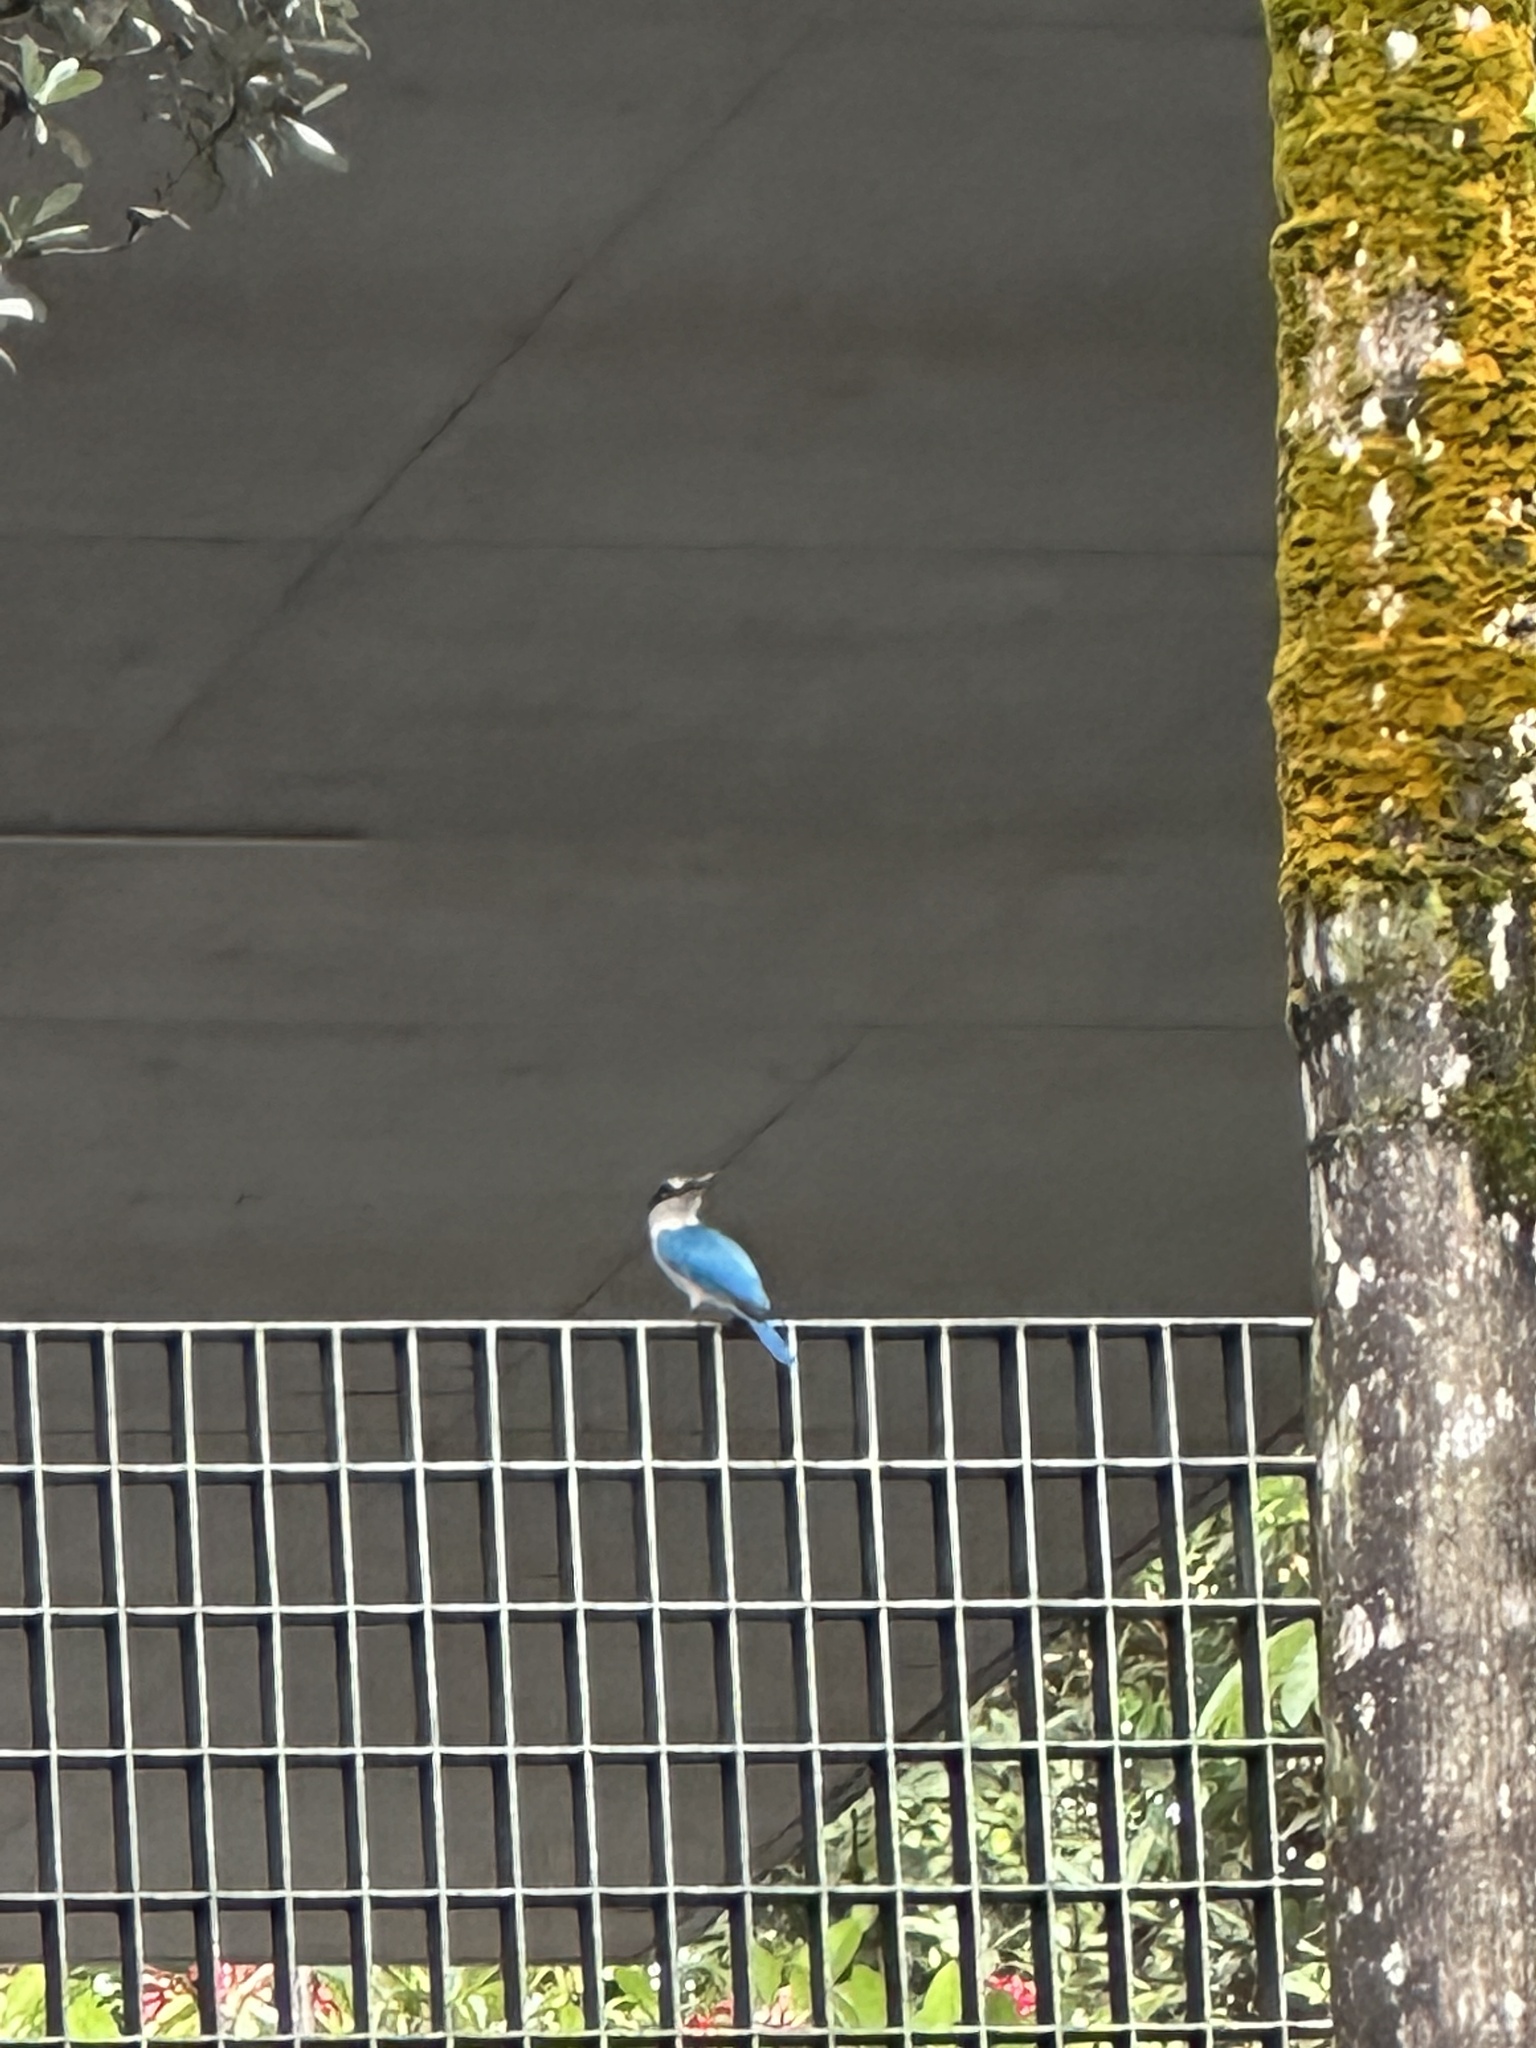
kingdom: Animalia
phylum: Chordata
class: Aves
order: Coraciiformes
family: Alcedinidae
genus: Todiramphus
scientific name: Todiramphus chloris
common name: Collared kingfisher
